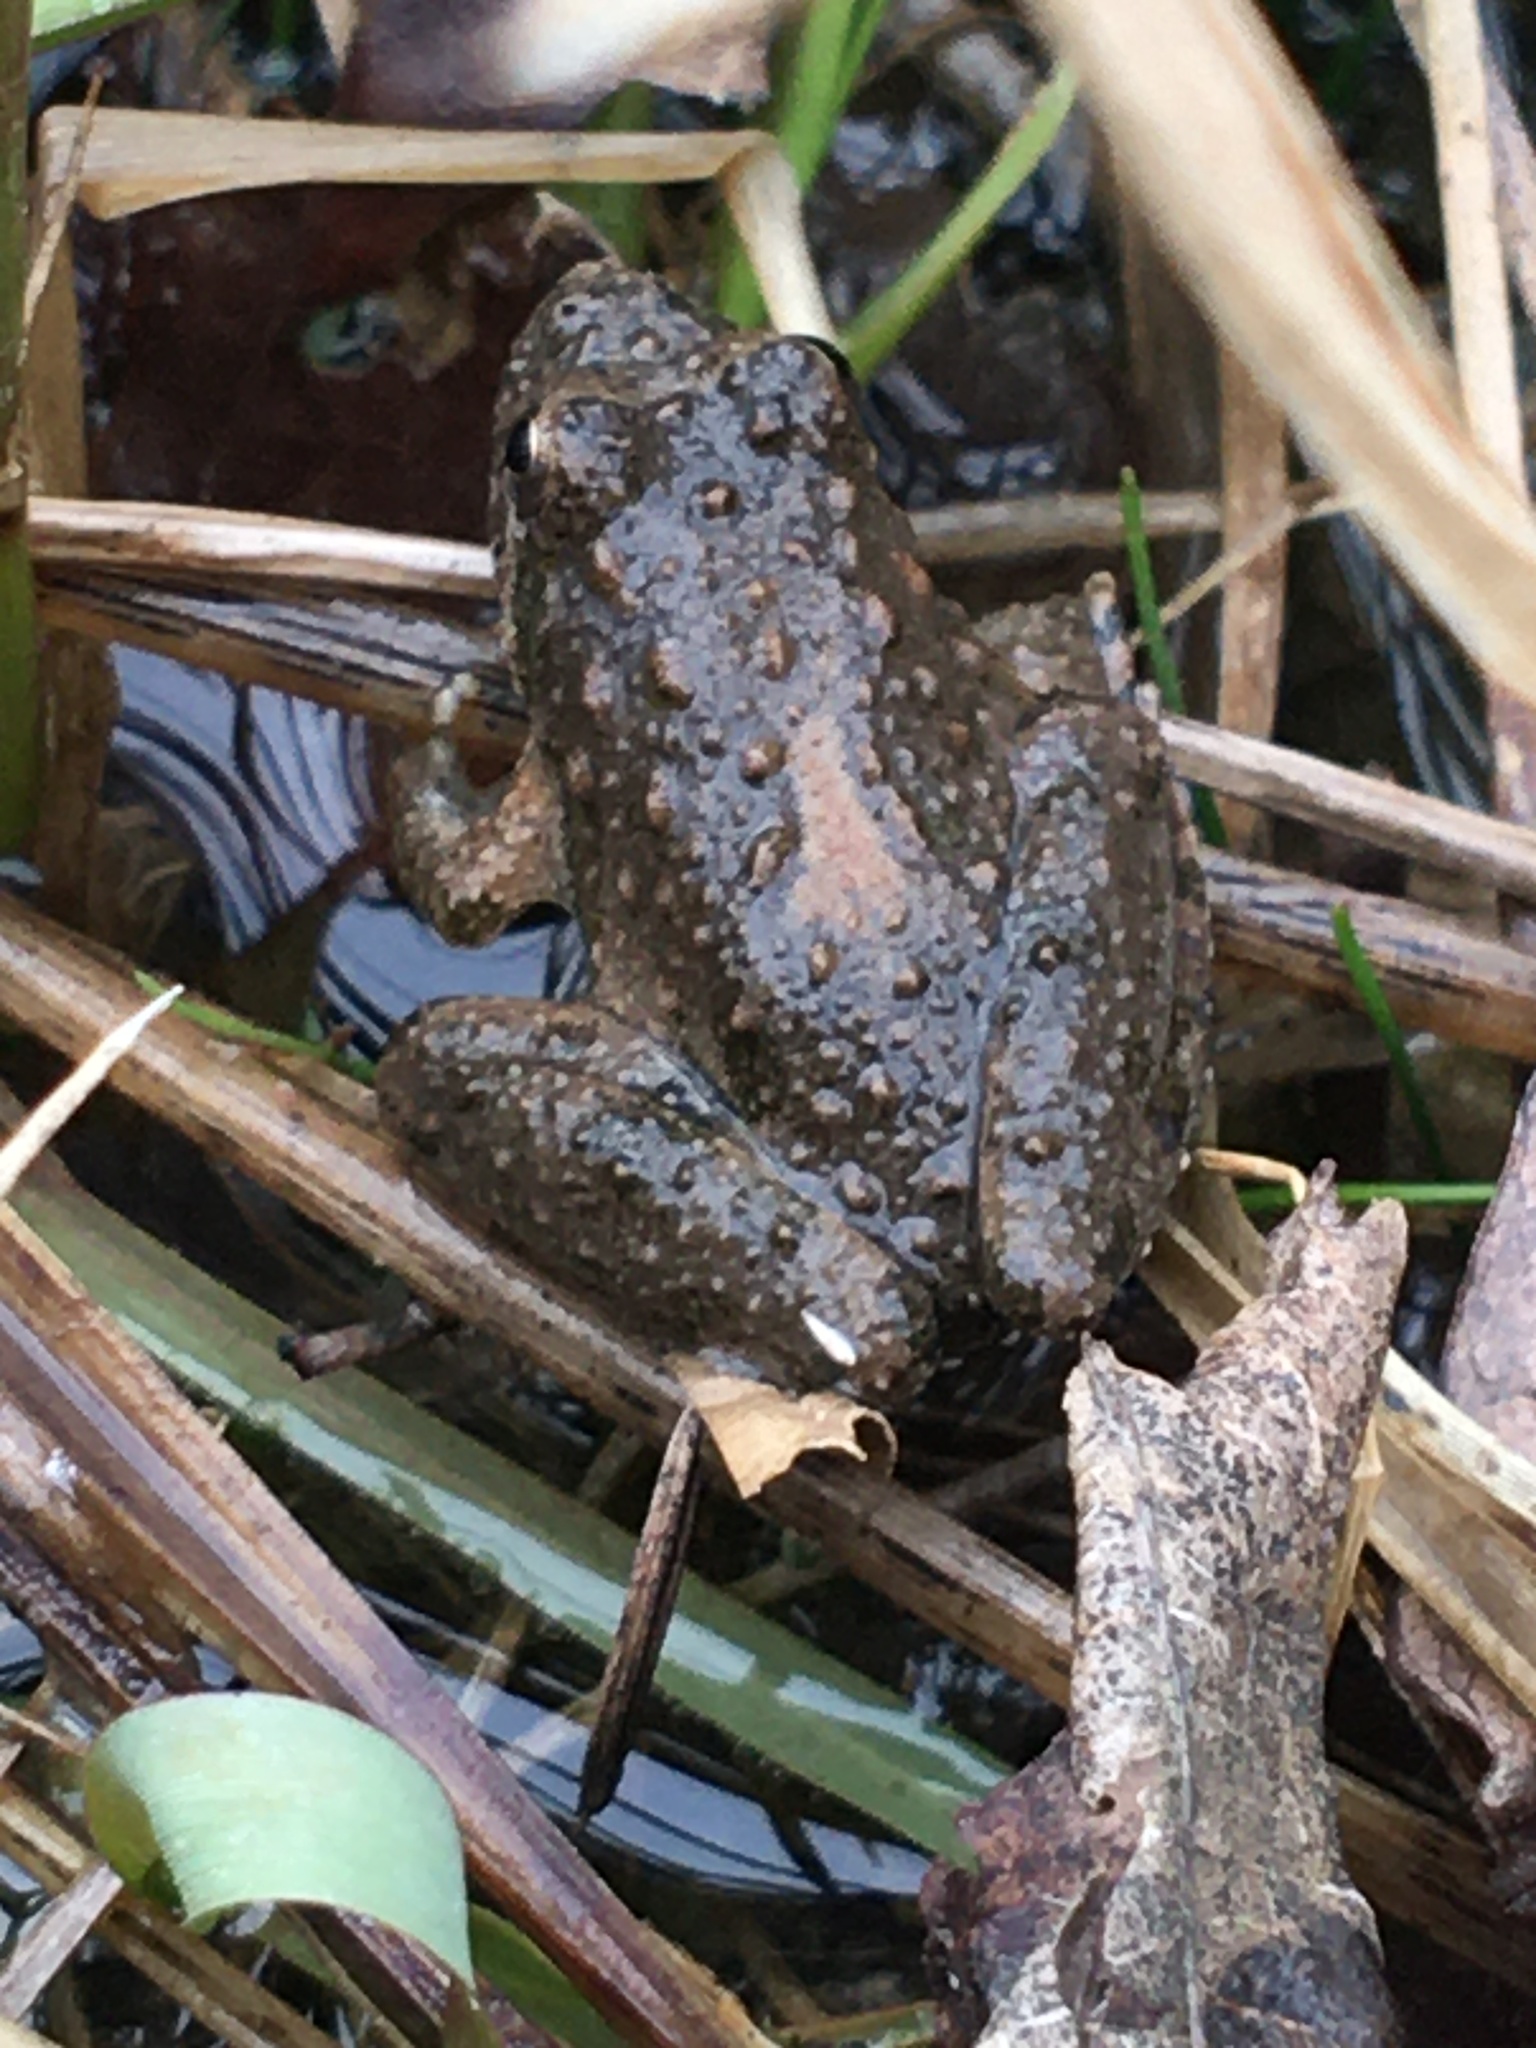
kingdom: Animalia
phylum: Chordata
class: Amphibia
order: Anura
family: Hylidae
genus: Acris
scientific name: Acris blanchardi
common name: Blanchard's cricket frog
